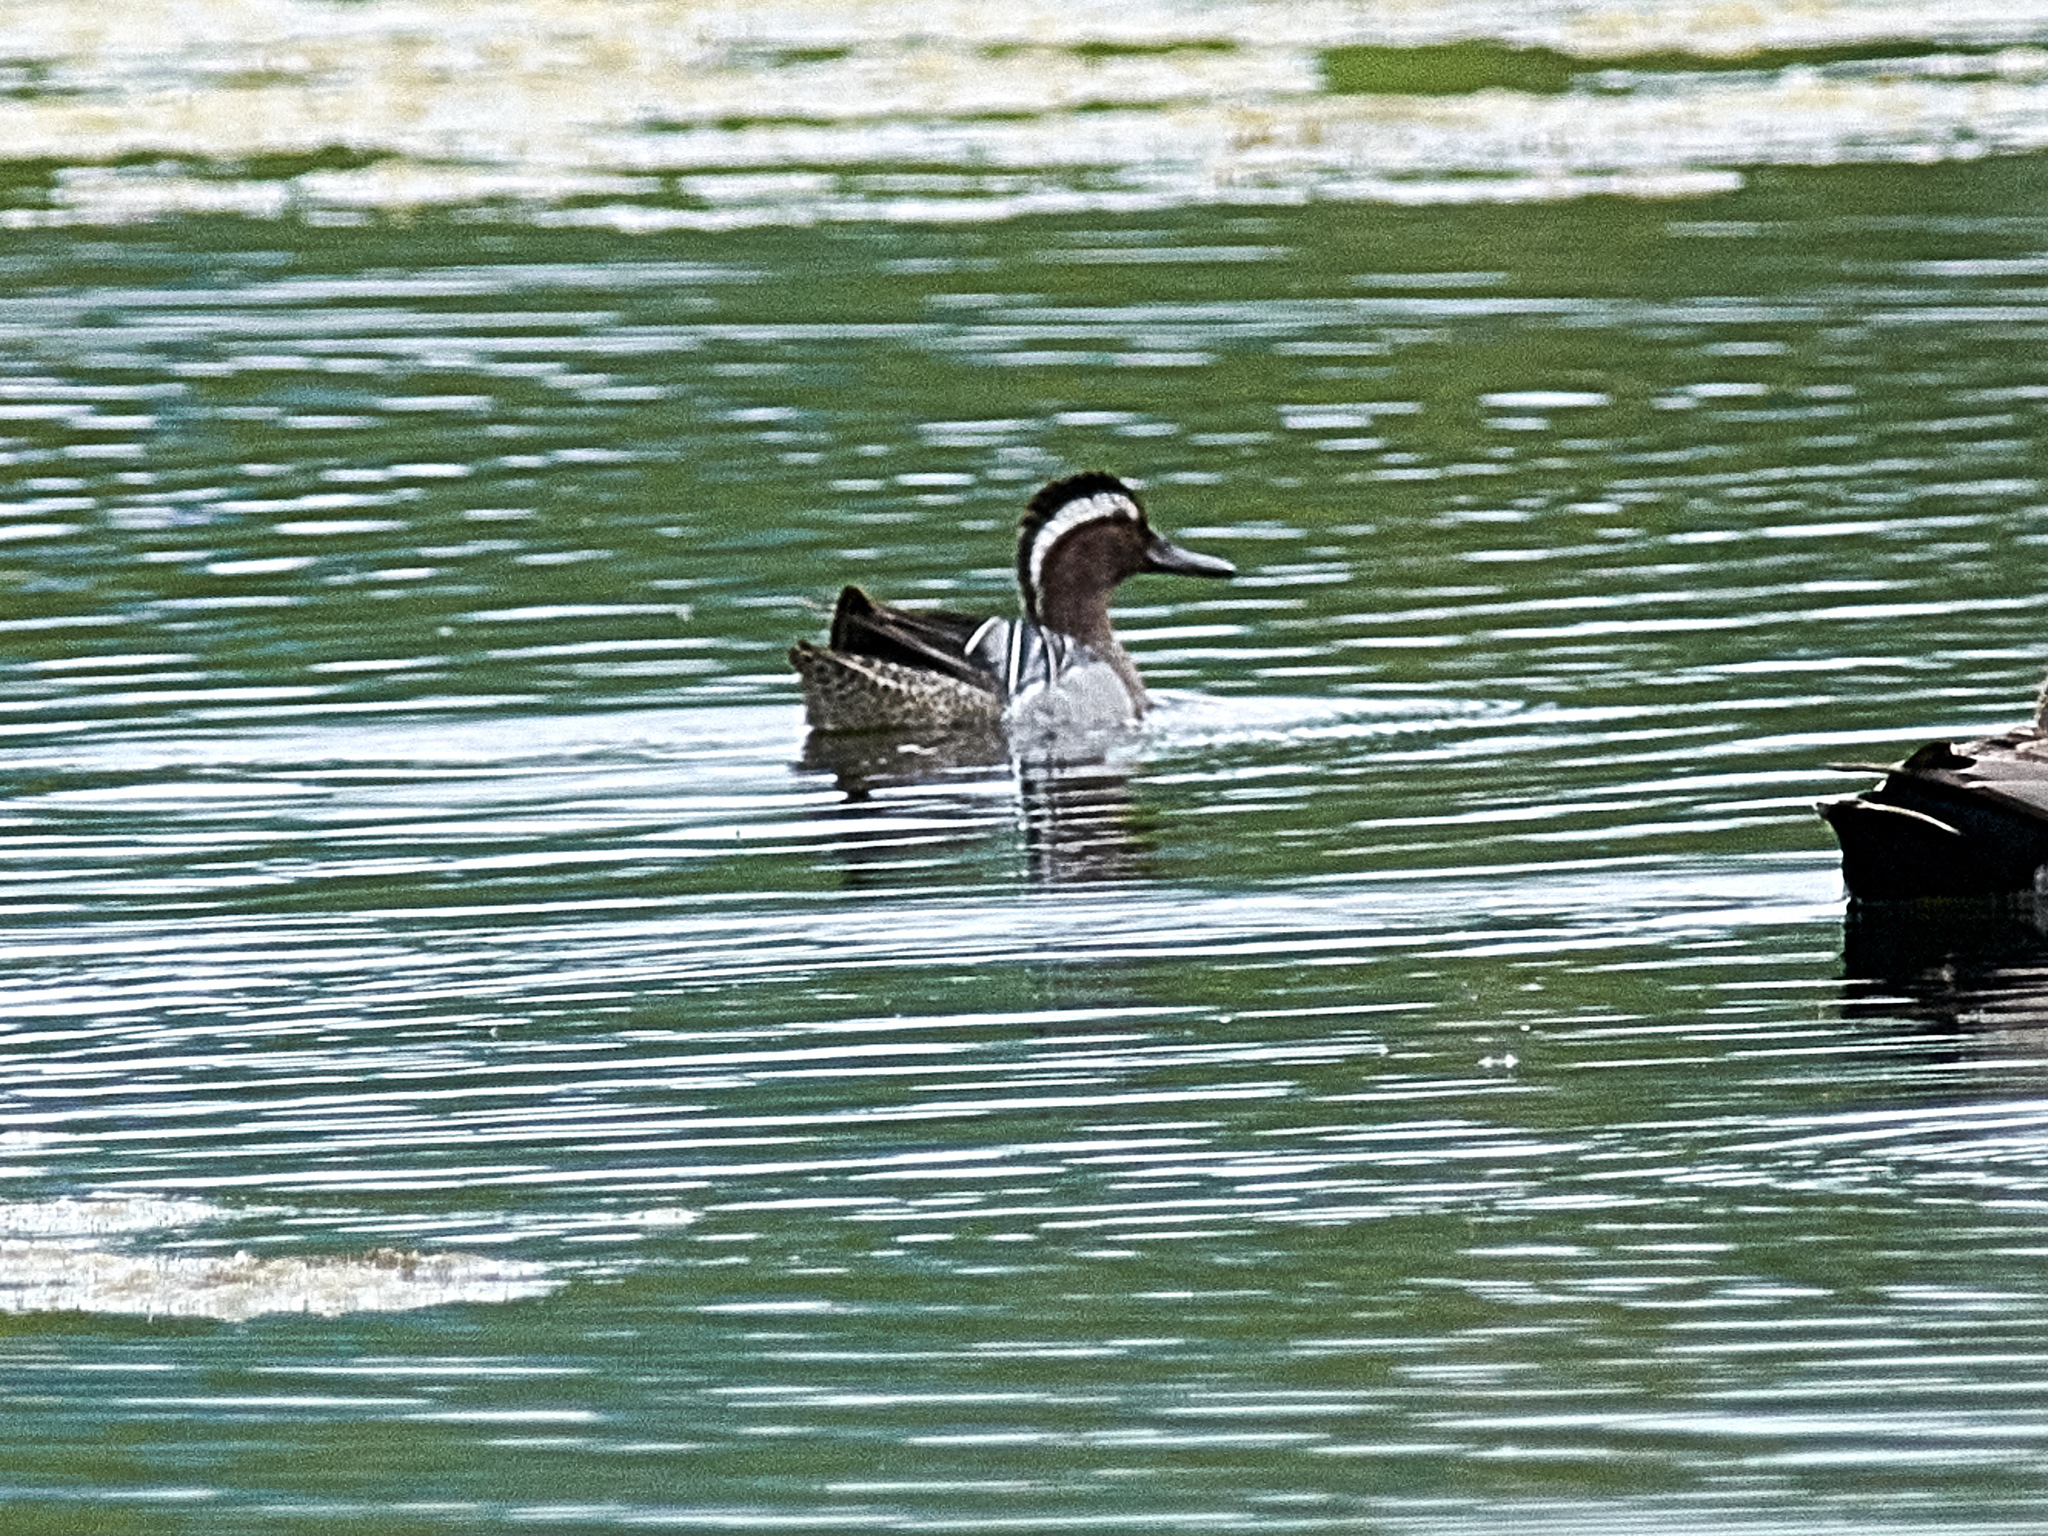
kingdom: Animalia
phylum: Chordata
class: Aves
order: Anseriformes
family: Anatidae
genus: Spatula
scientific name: Spatula querquedula
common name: Garganey
